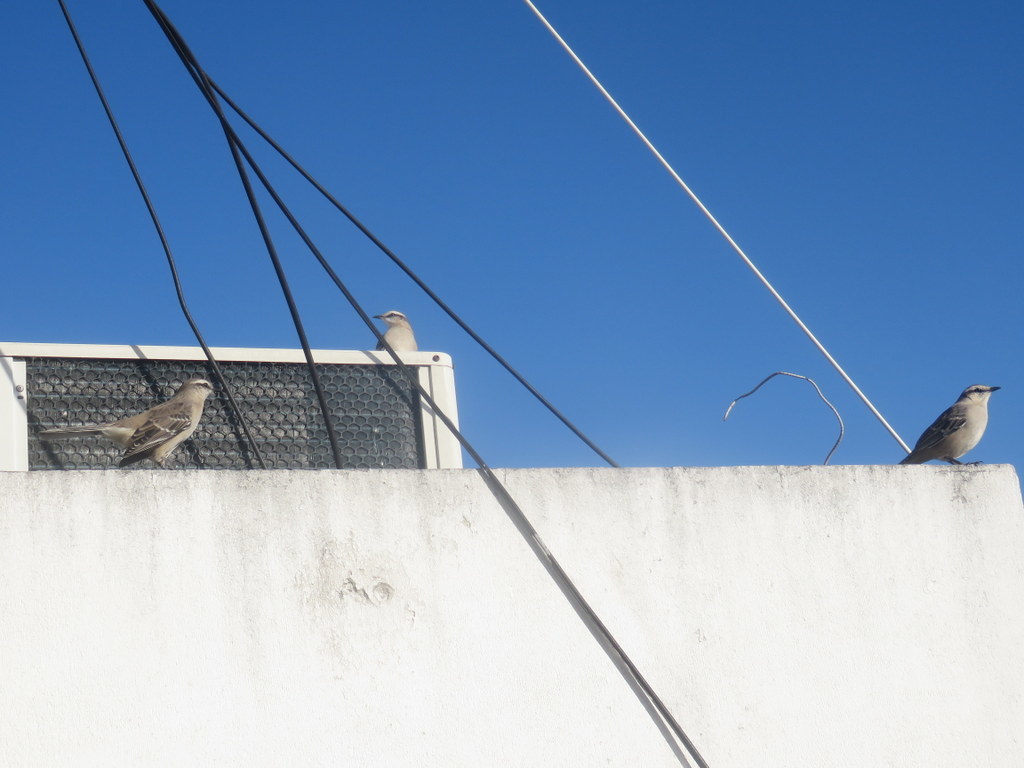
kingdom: Animalia
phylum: Chordata
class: Aves
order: Passeriformes
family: Mimidae
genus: Mimus
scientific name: Mimus saturninus
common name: Chalk-browed mockingbird
